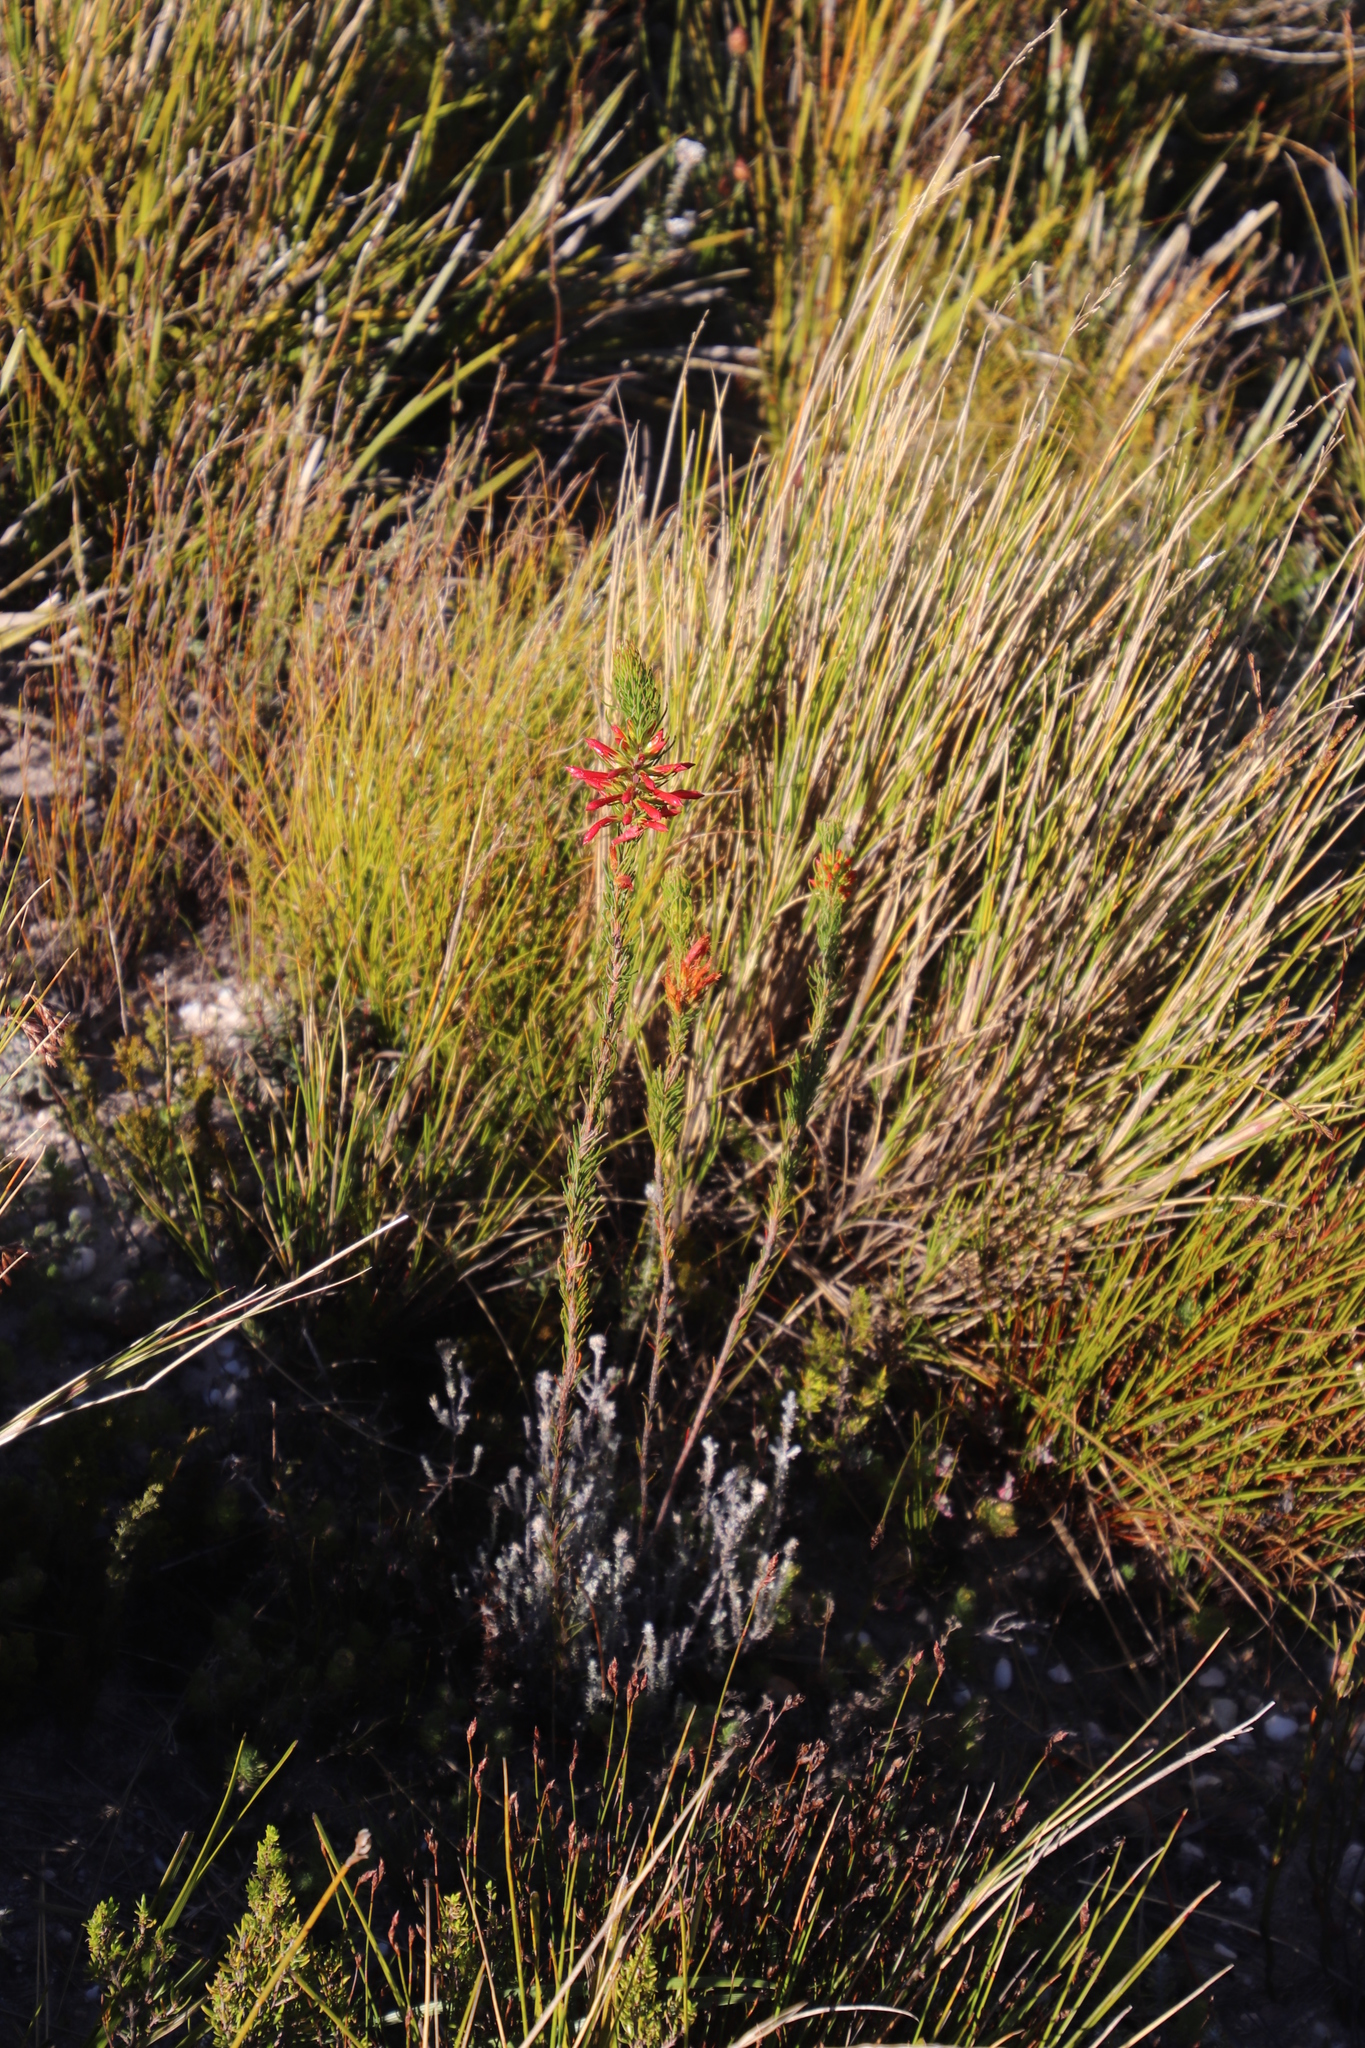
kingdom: Plantae
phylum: Tracheophyta
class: Magnoliopsida
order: Ericales
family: Ericaceae
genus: Erica
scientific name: Erica grandiflora
